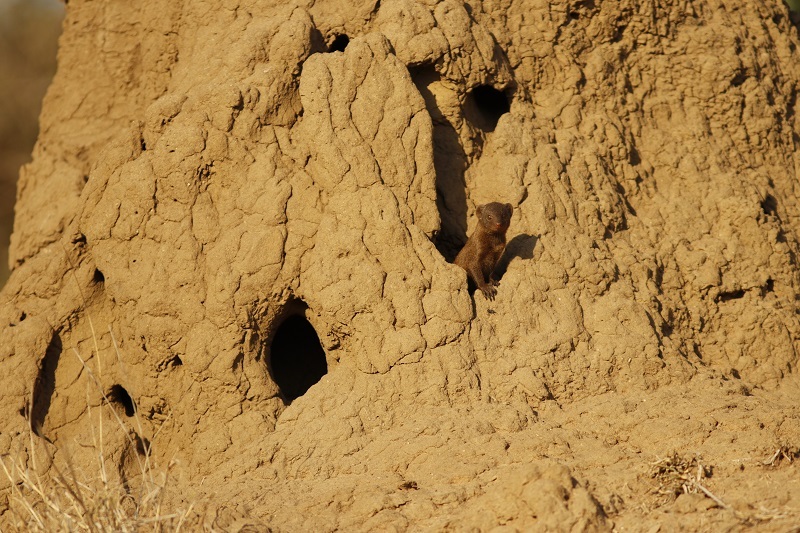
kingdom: Animalia
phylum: Chordata
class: Mammalia
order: Carnivora
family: Herpestidae
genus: Helogale
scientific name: Helogale parvula
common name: Common dwarf mongoose
